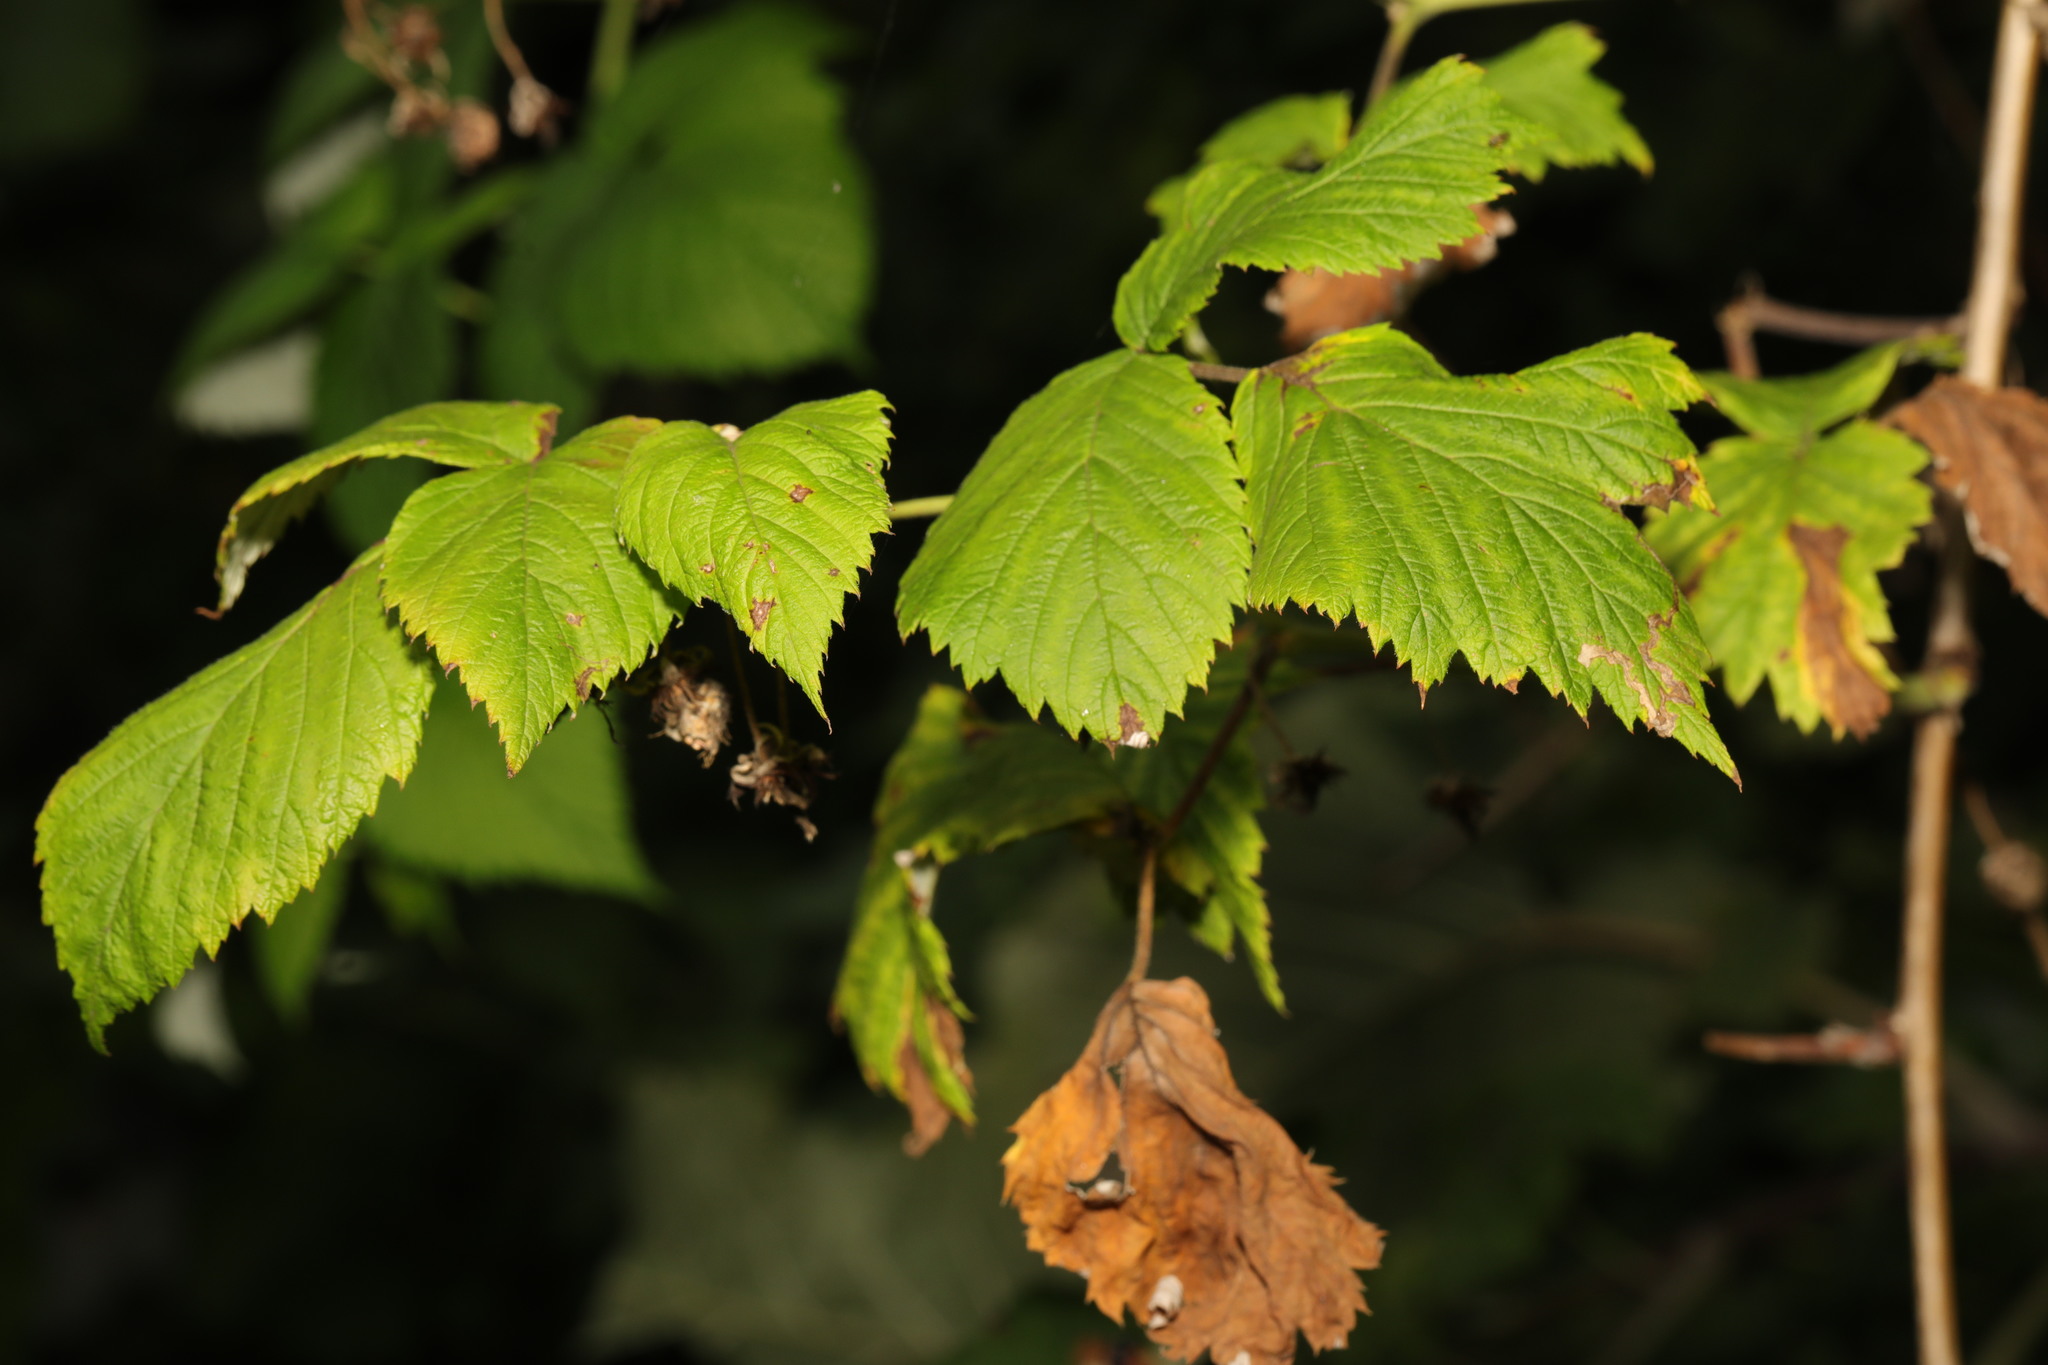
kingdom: Plantae
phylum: Tracheophyta
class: Magnoliopsida
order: Rosales
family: Rosaceae
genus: Rubus
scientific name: Rubus idaeus
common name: Raspberry
